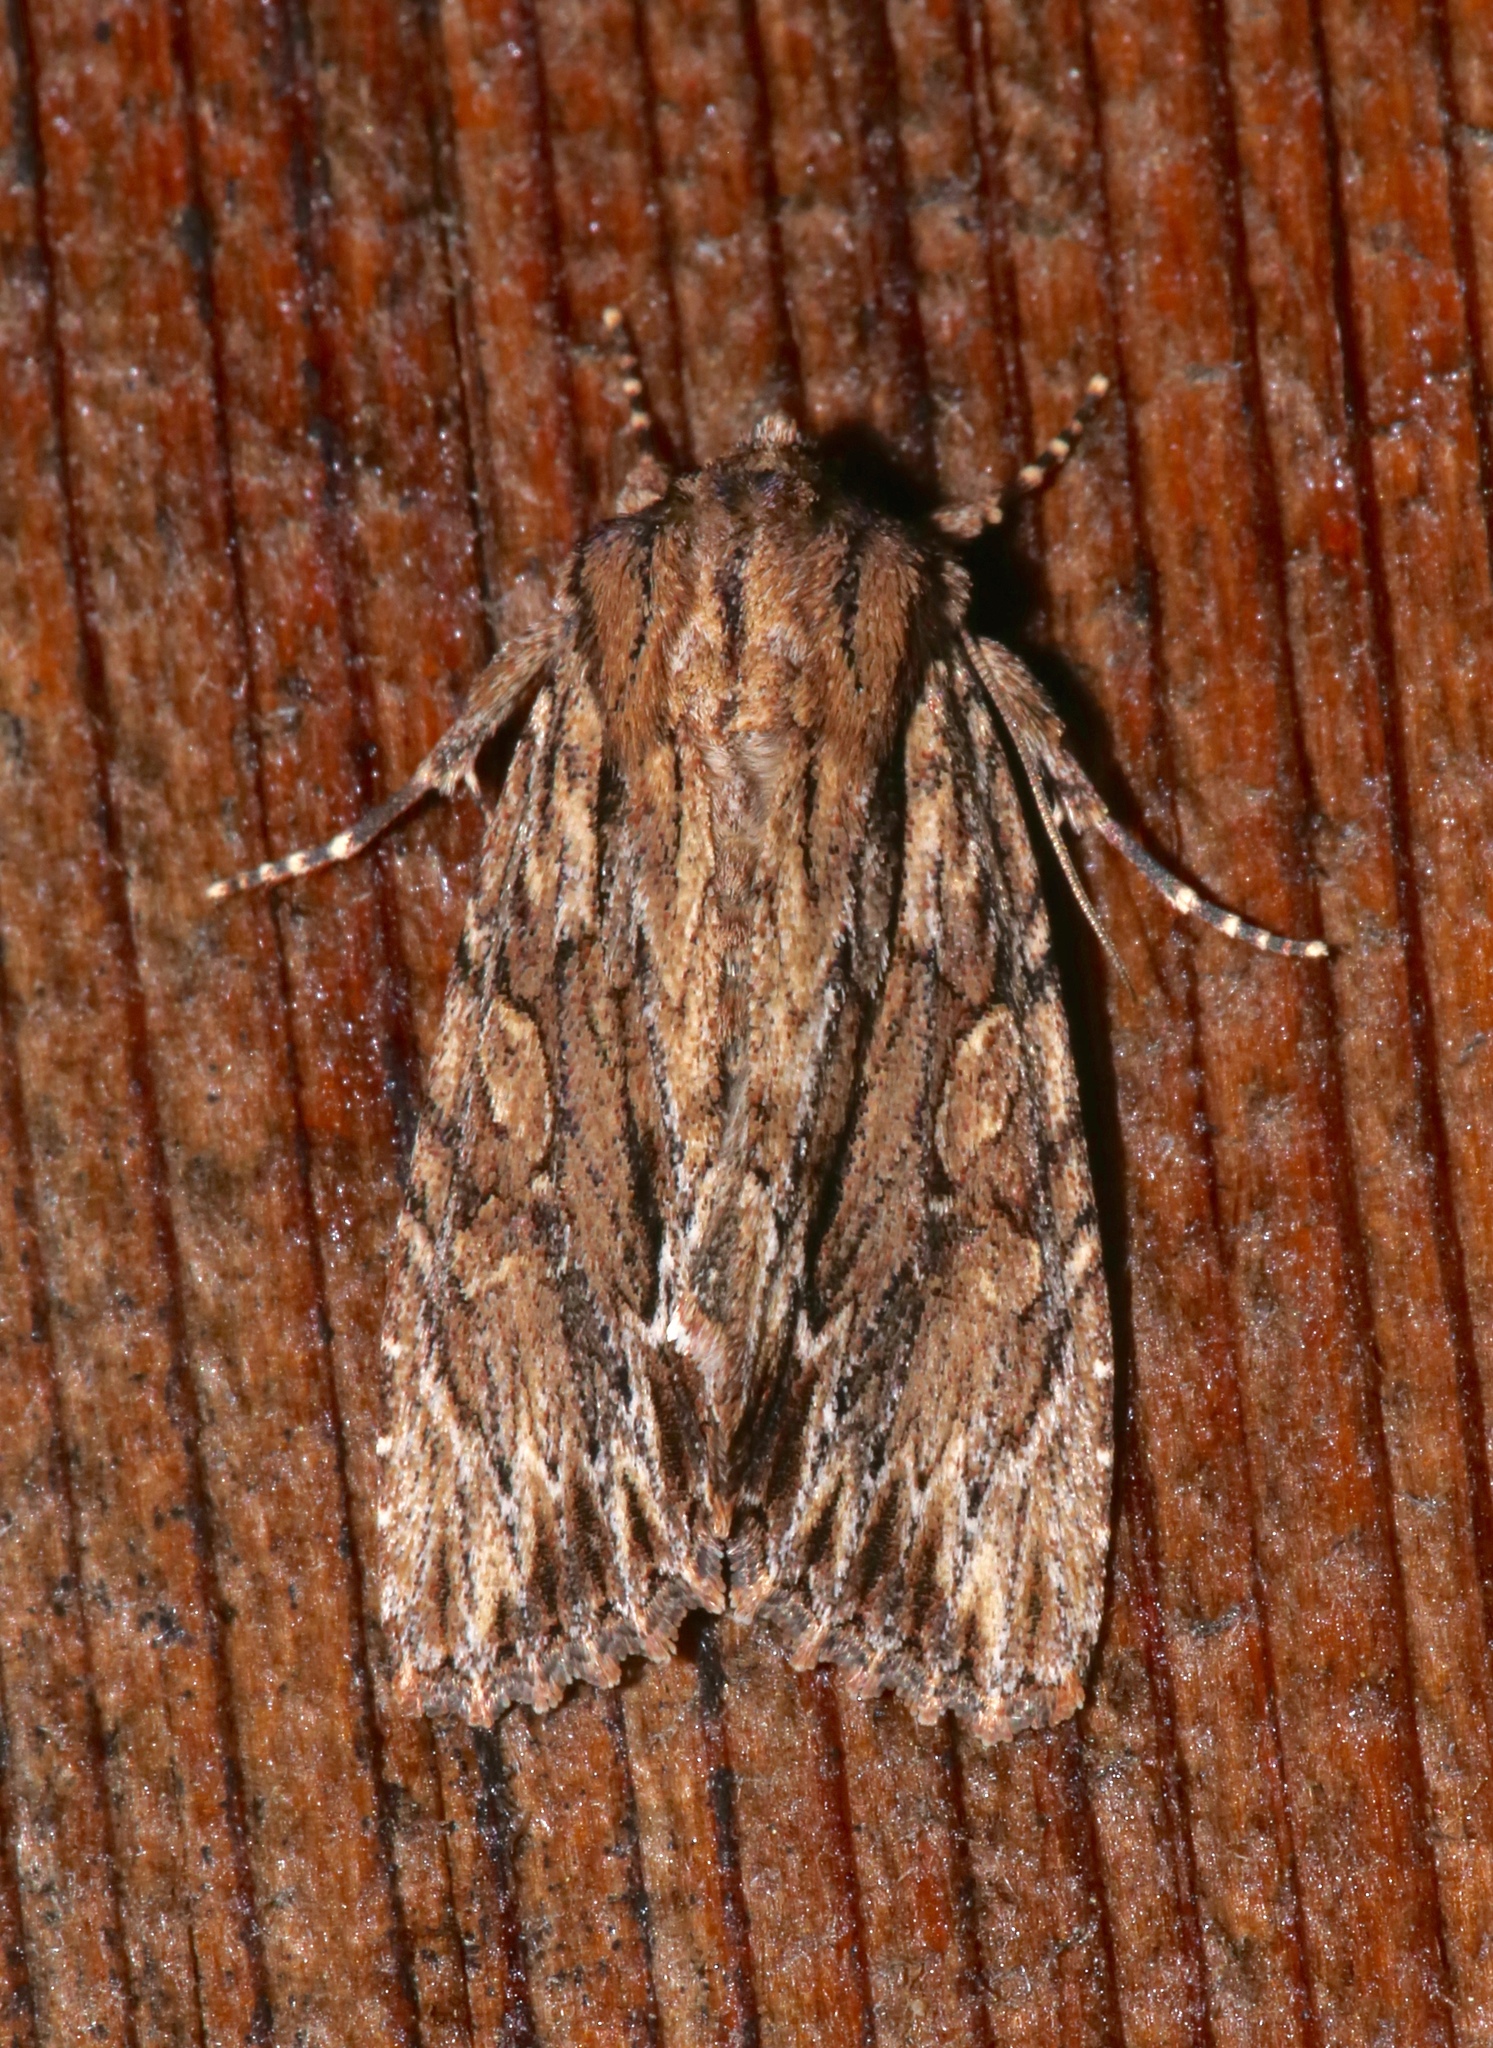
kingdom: Animalia
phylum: Arthropoda
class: Insecta
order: Lepidoptera
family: Noctuidae
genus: Achatia
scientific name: Achatia confusa
